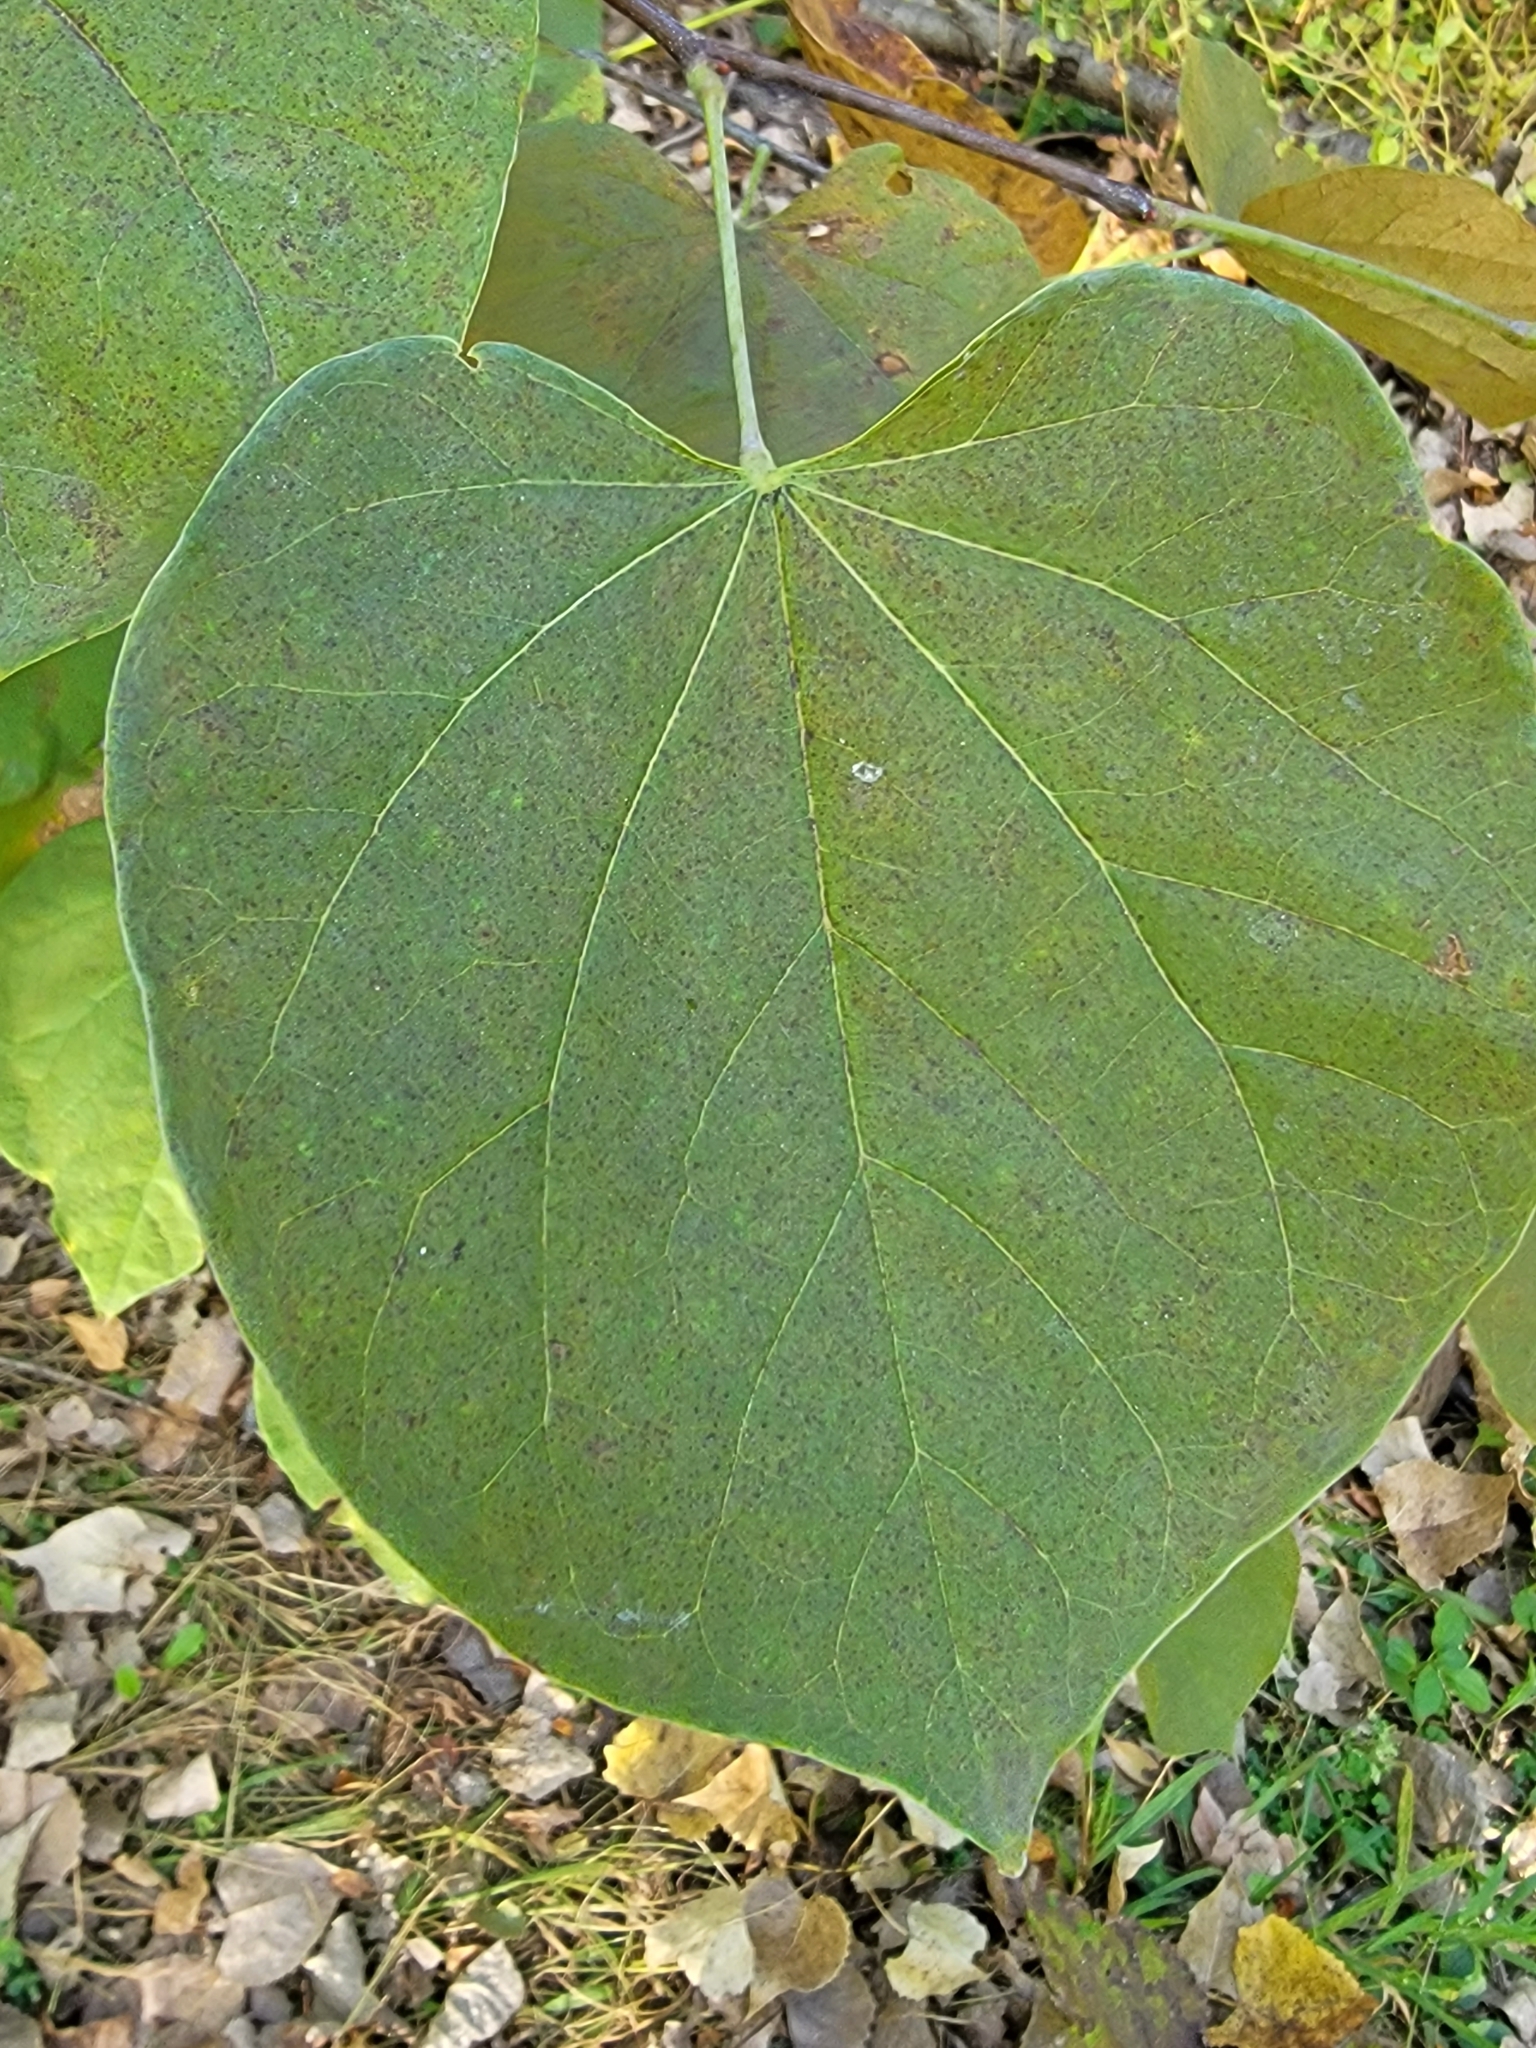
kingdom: Plantae
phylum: Tracheophyta
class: Magnoliopsida
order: Fabales
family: Fabaceae
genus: Cercis
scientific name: Cercis canadensis
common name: Eastern redbud
